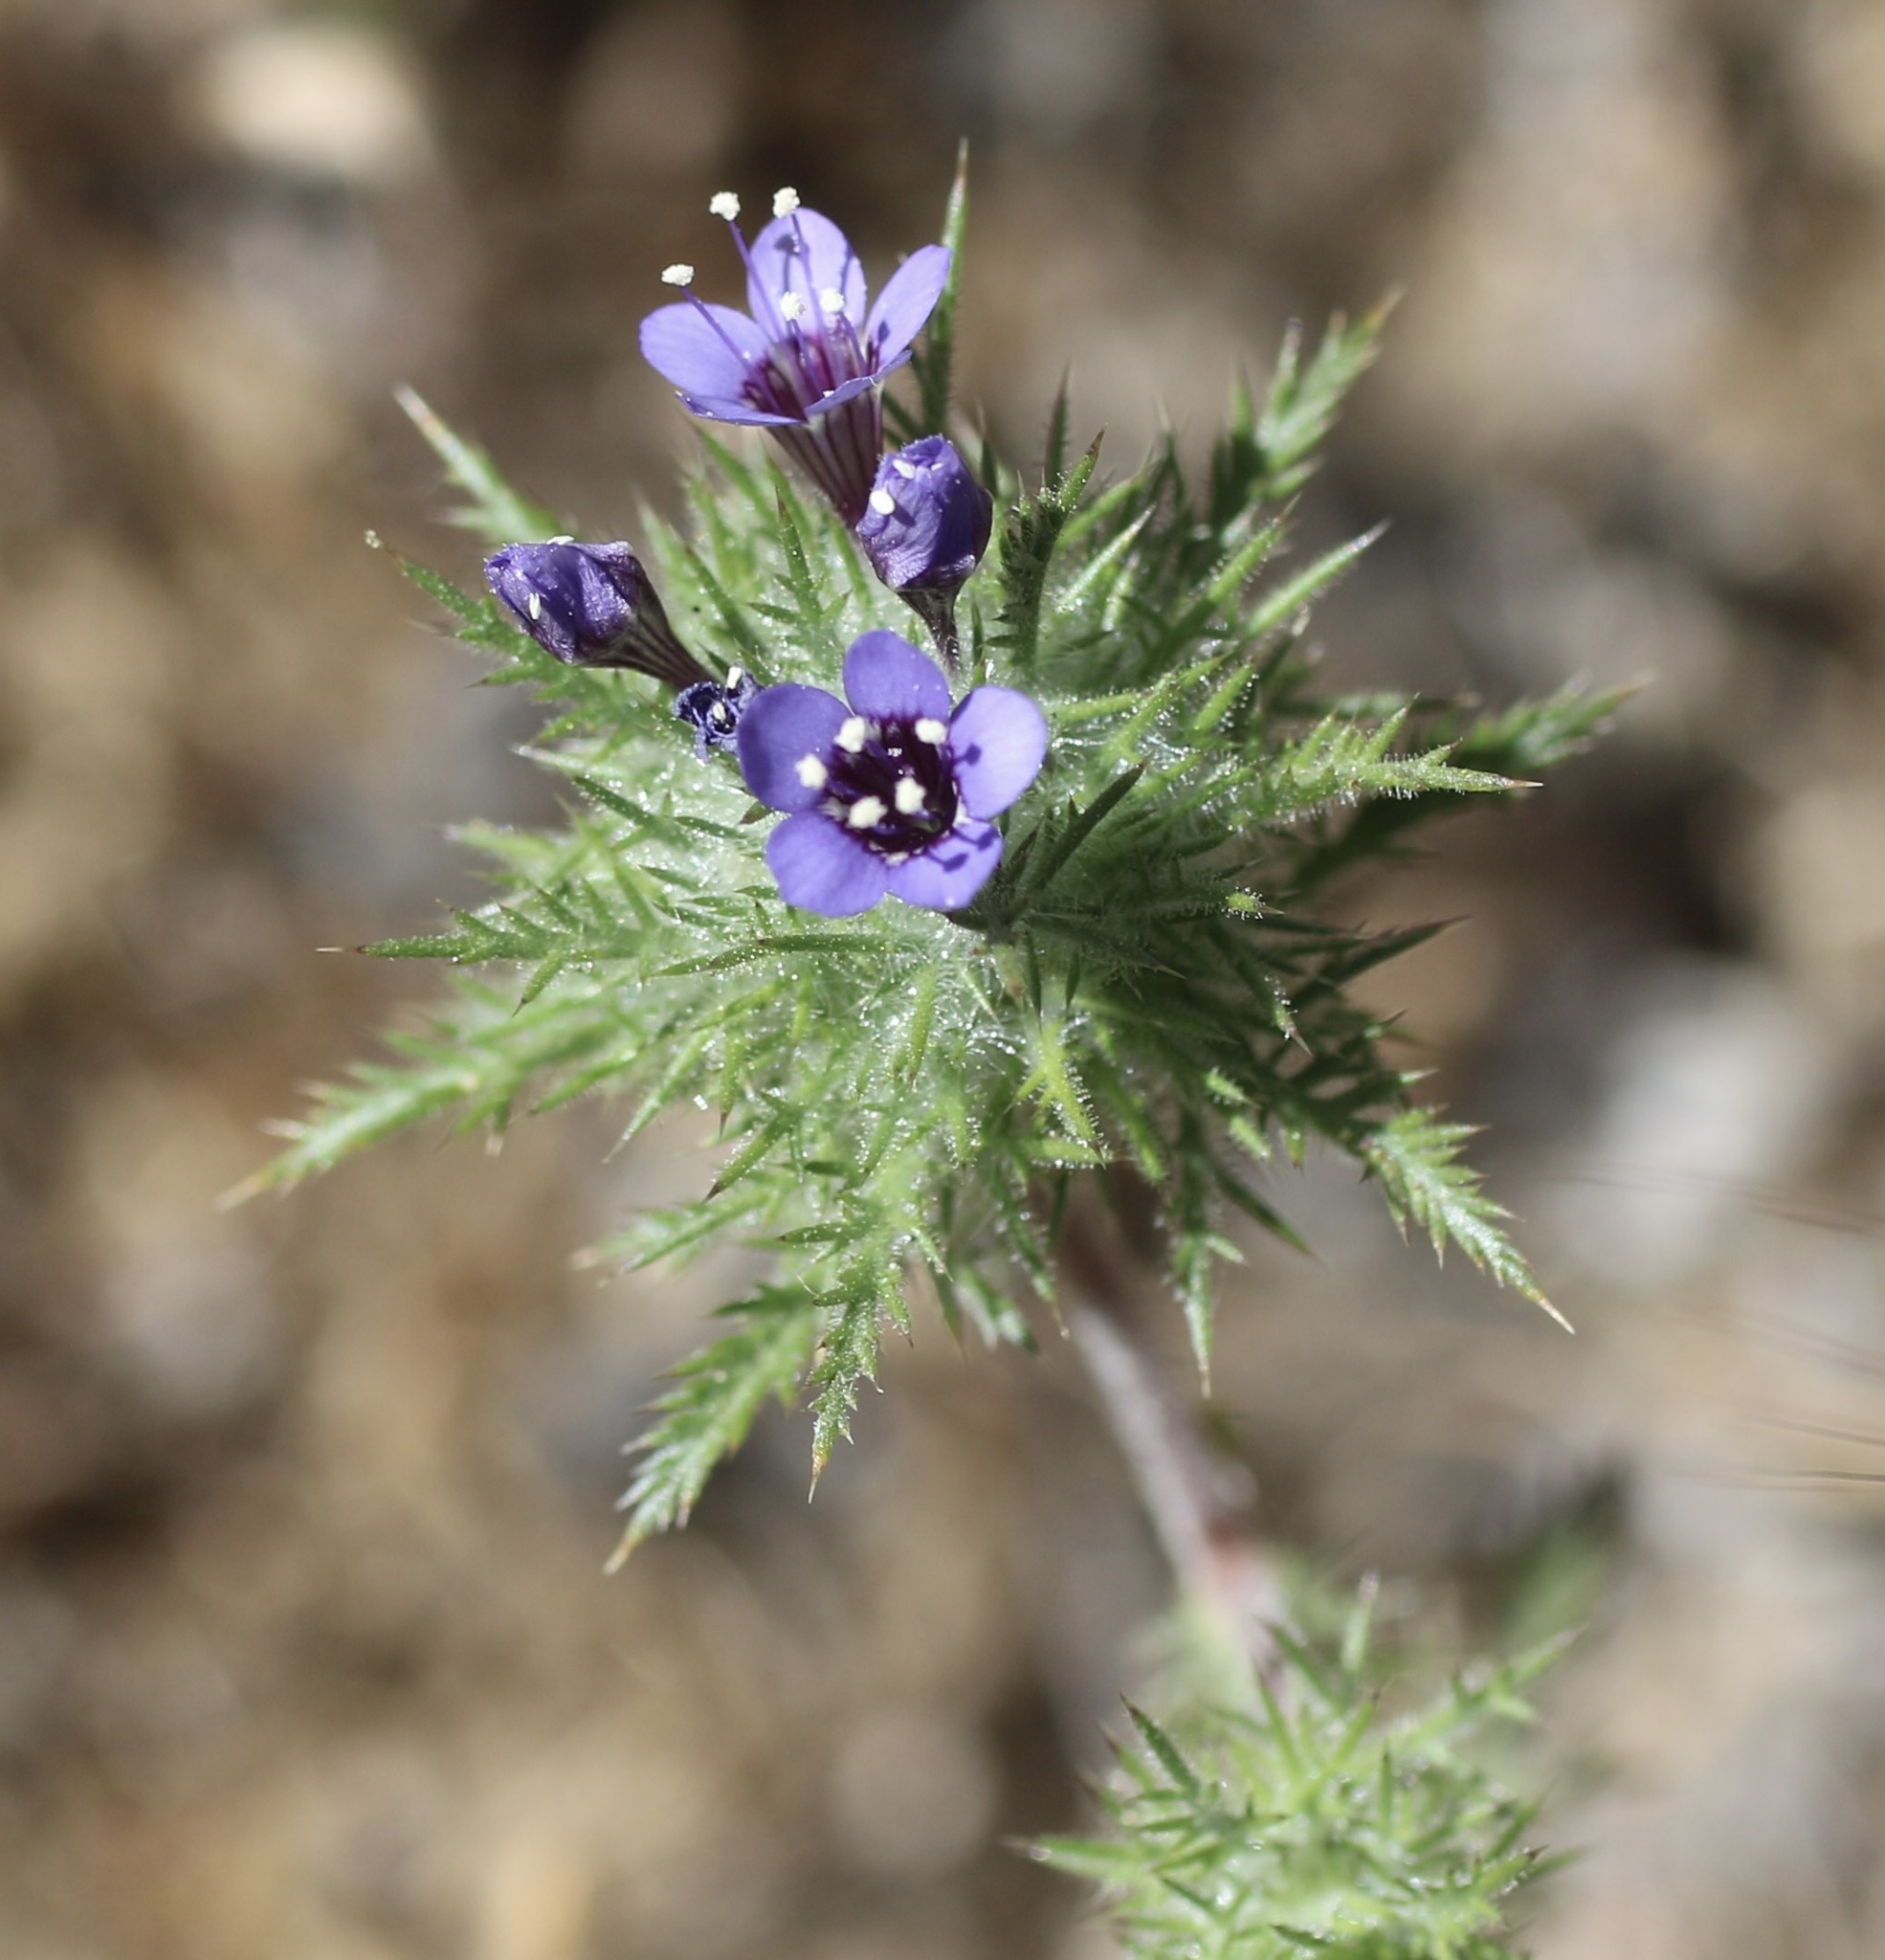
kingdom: Plantae
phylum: Tracheophyta
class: Magnoliopsida
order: Ericales
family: Polemoniaceae
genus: Navarretia
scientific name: Navarretia pubescens
